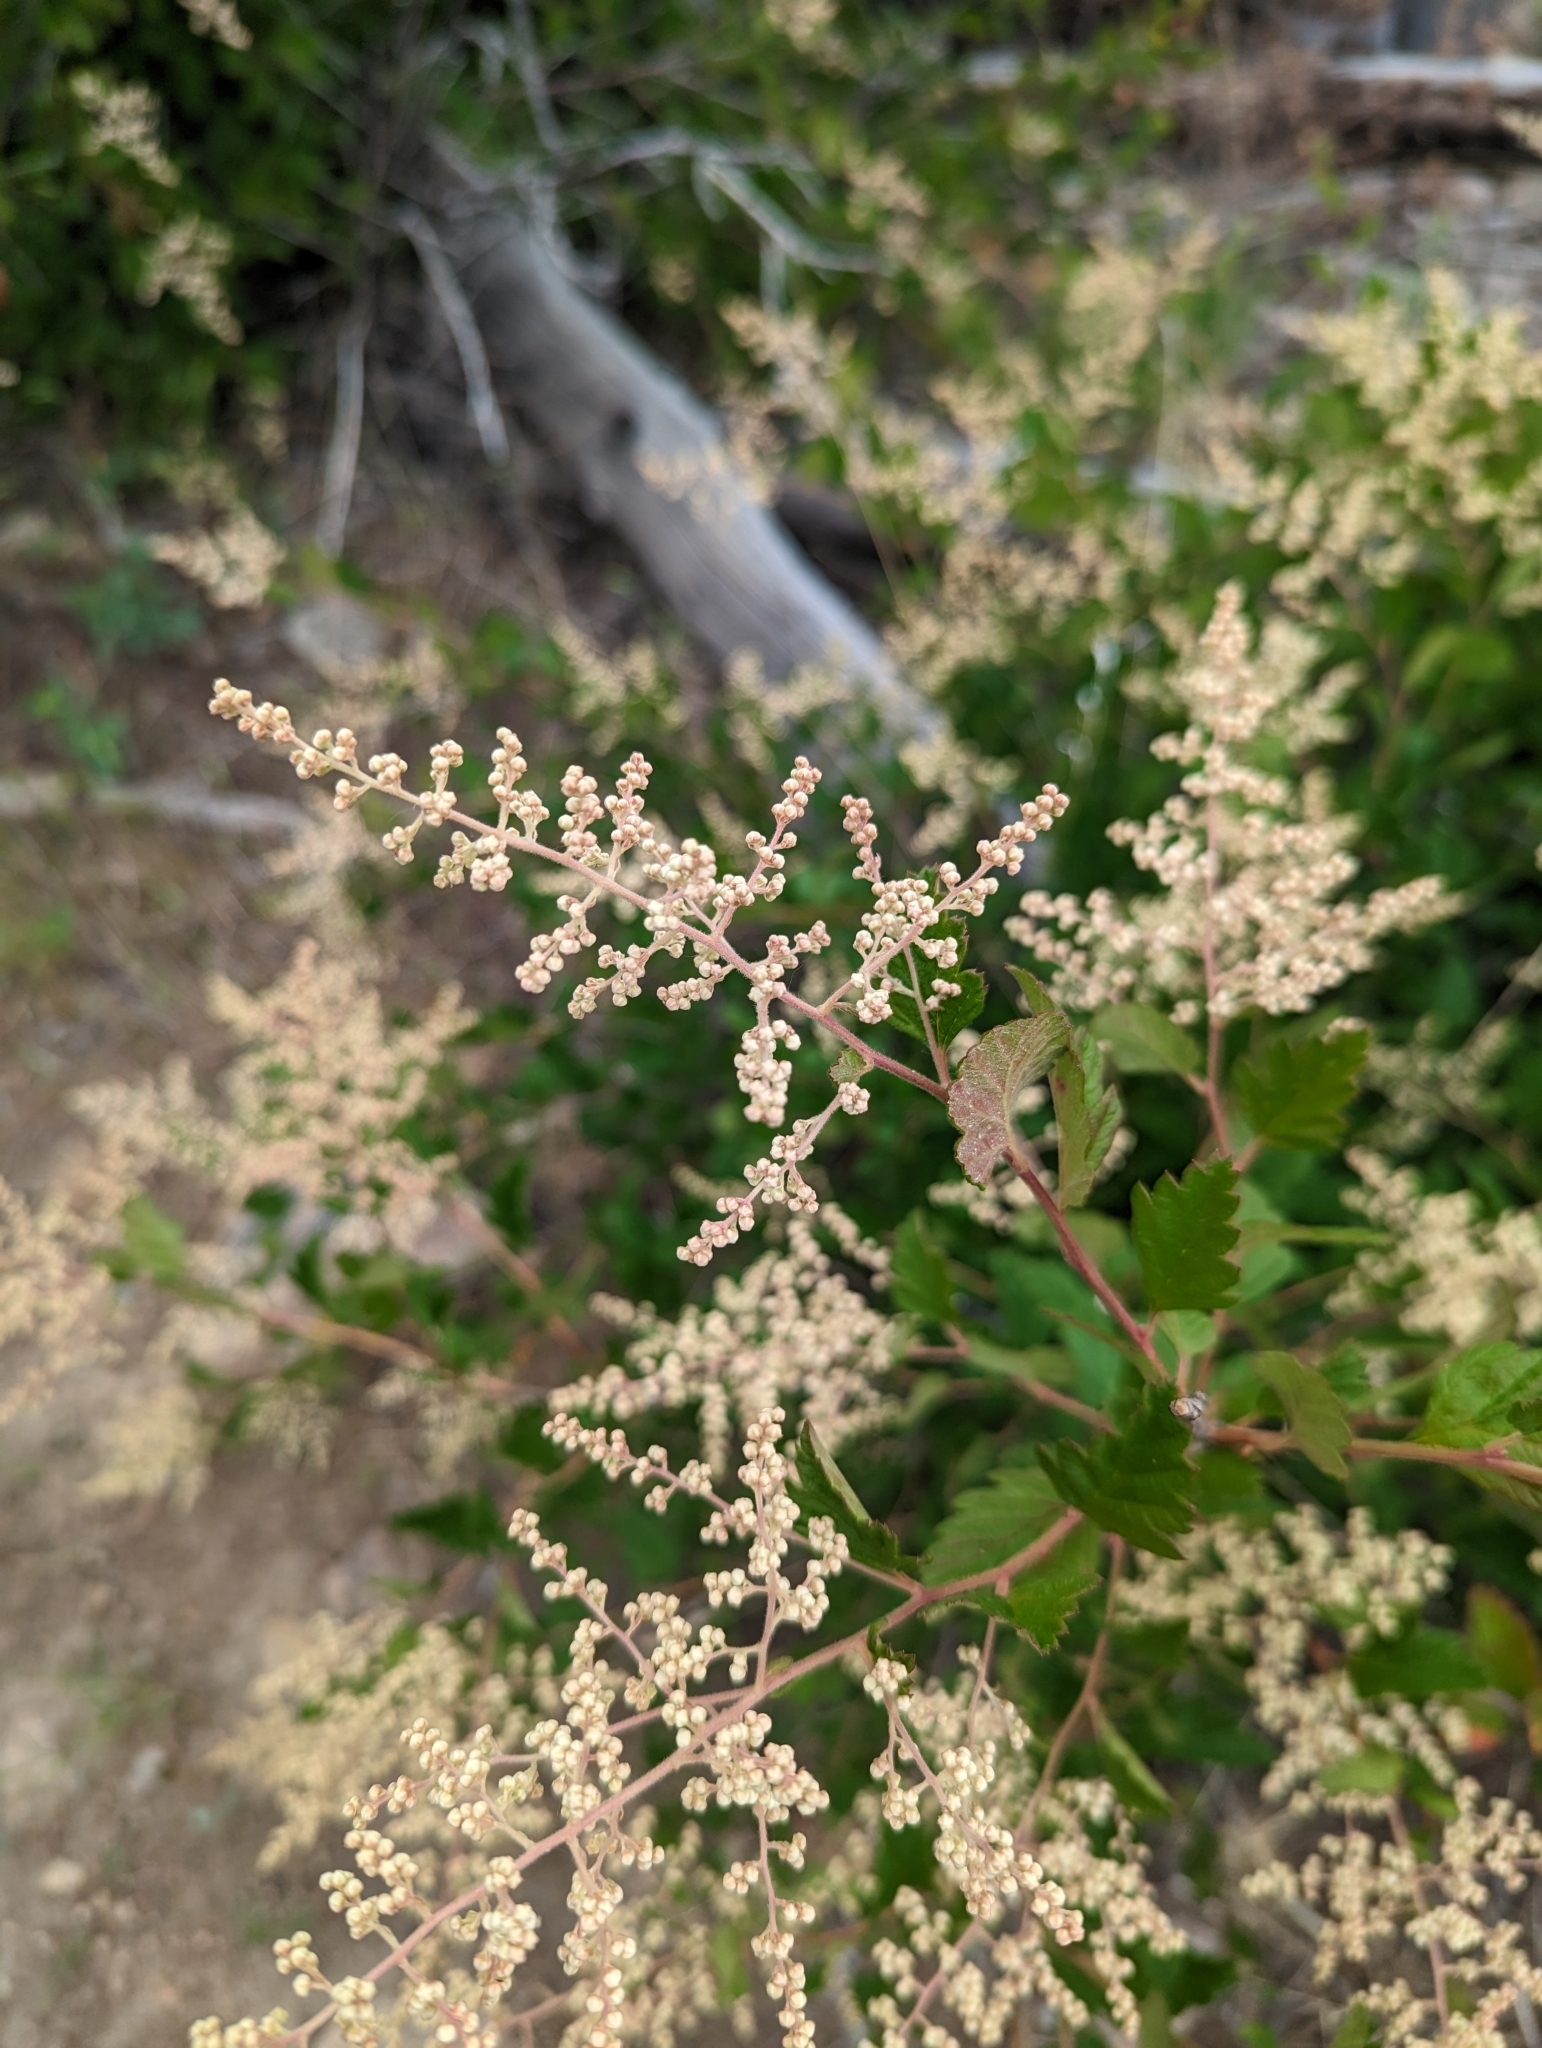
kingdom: Plantae
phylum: Tracheophyta
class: Magnoliopsida
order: Rosales
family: Rosaceae
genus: Holodiscus
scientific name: Holodiscus discolor
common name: Oceanspray
